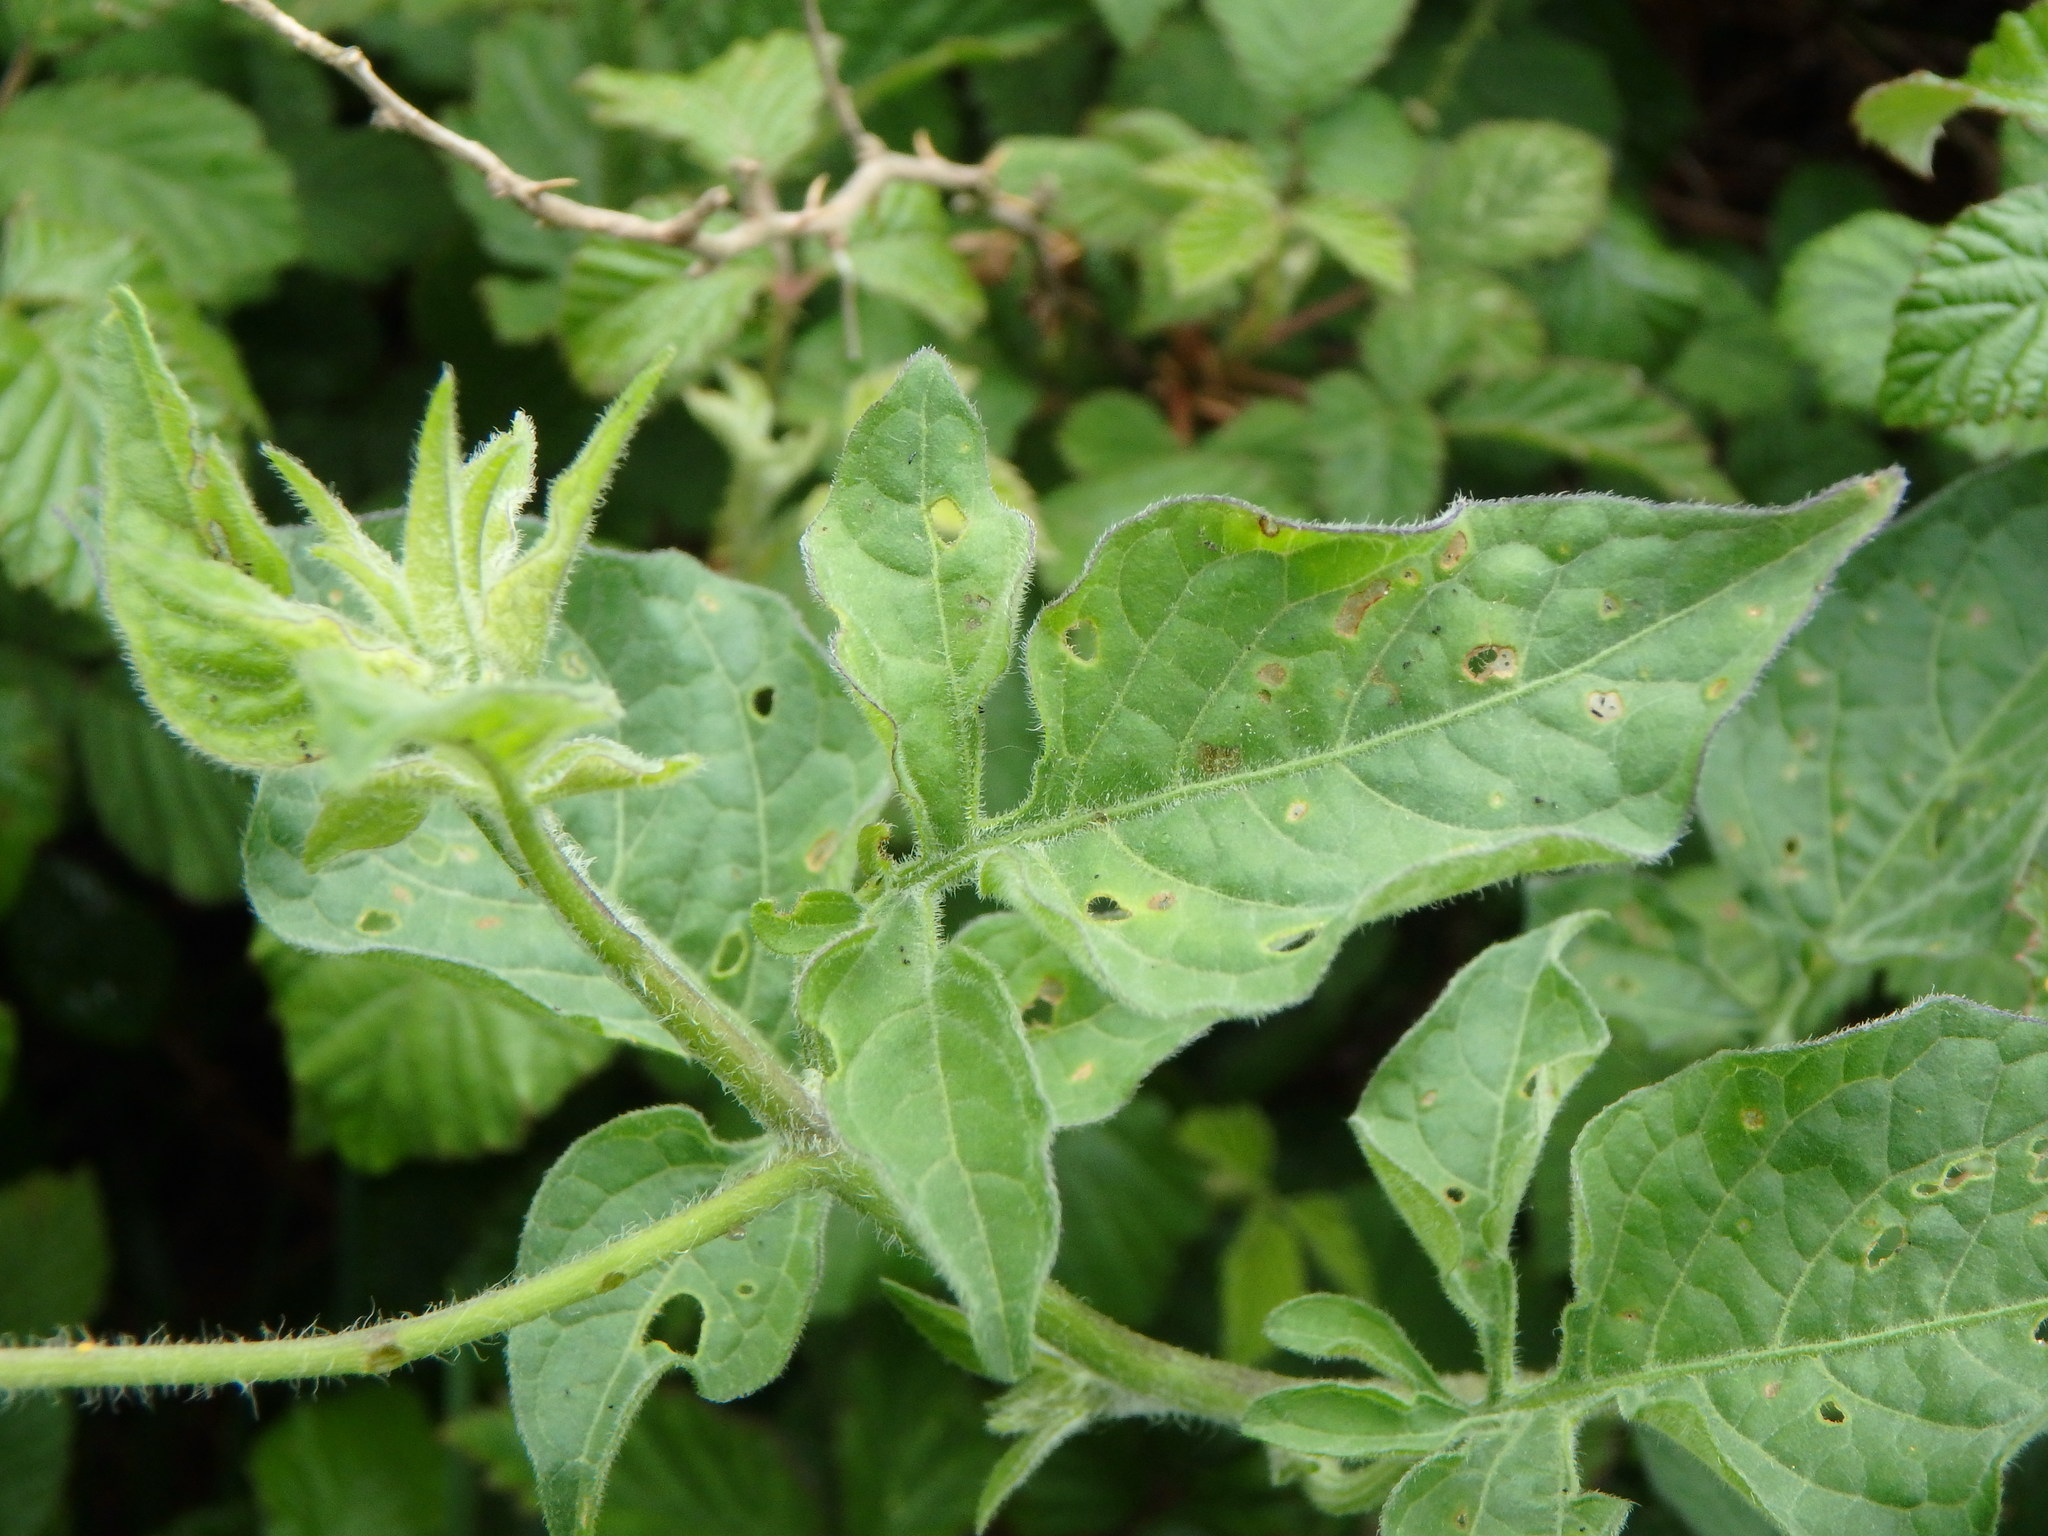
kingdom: Plantae
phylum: Tracheophyta
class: Magnoliopsida
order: Solanales
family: Solanaceae
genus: Solanum
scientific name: Solanum dulcamara
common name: Climbing nightshade
